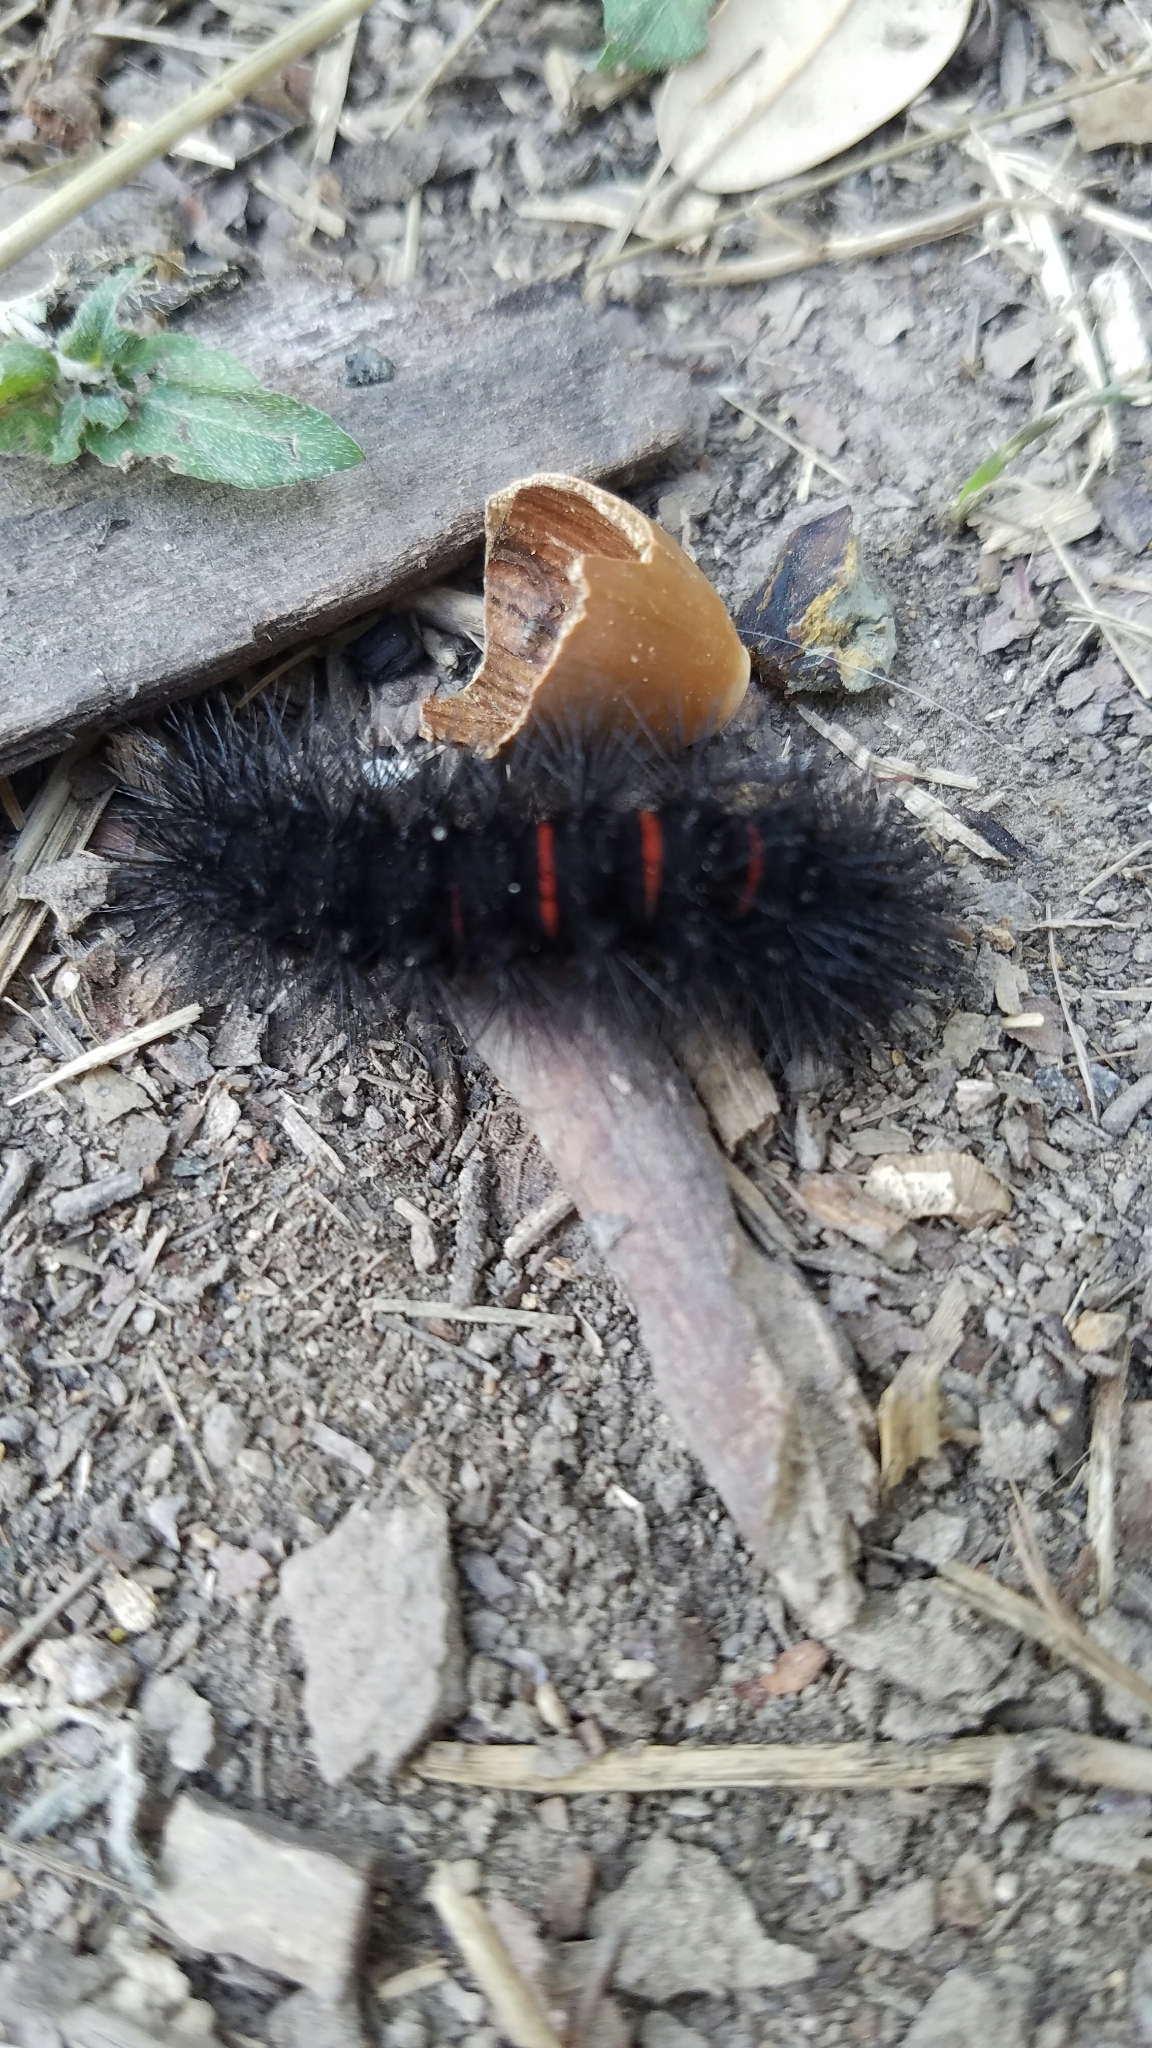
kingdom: Animalia
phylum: Arthropoda
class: Insecta
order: Lepidoptera
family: Erebidae
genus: Hypercompe
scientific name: Hypercompe scribonia
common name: Giant leopard moth
